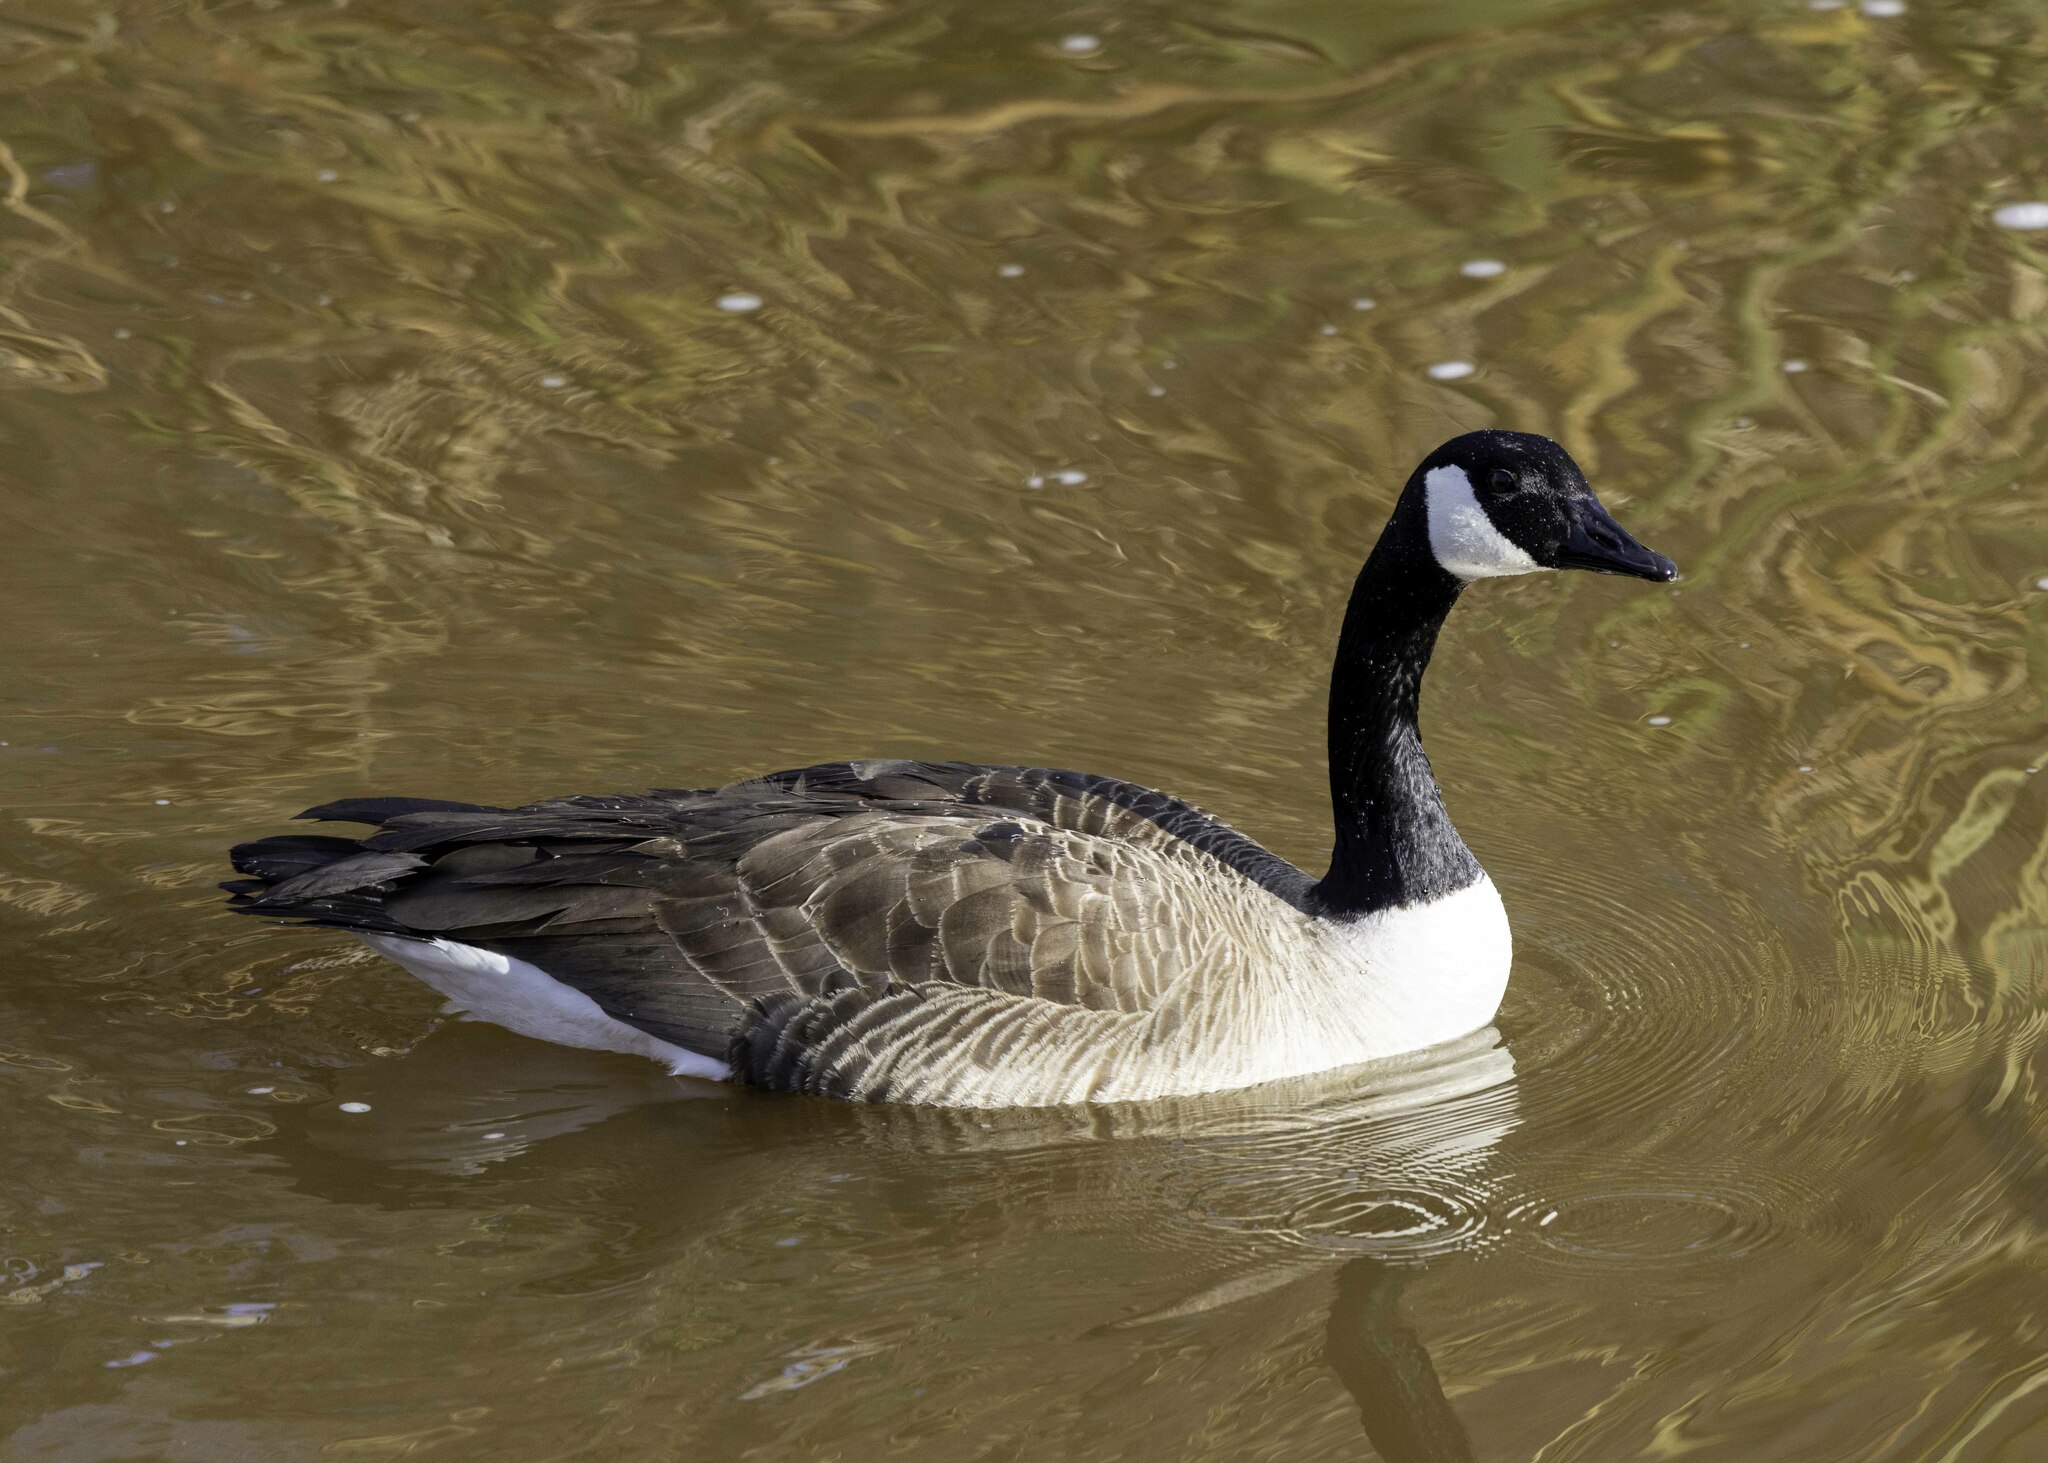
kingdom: Animalia
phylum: Chordata
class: Aves
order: Anseriformes
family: Anatidae
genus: Branta
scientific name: Branta canadensis
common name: Canada goose
